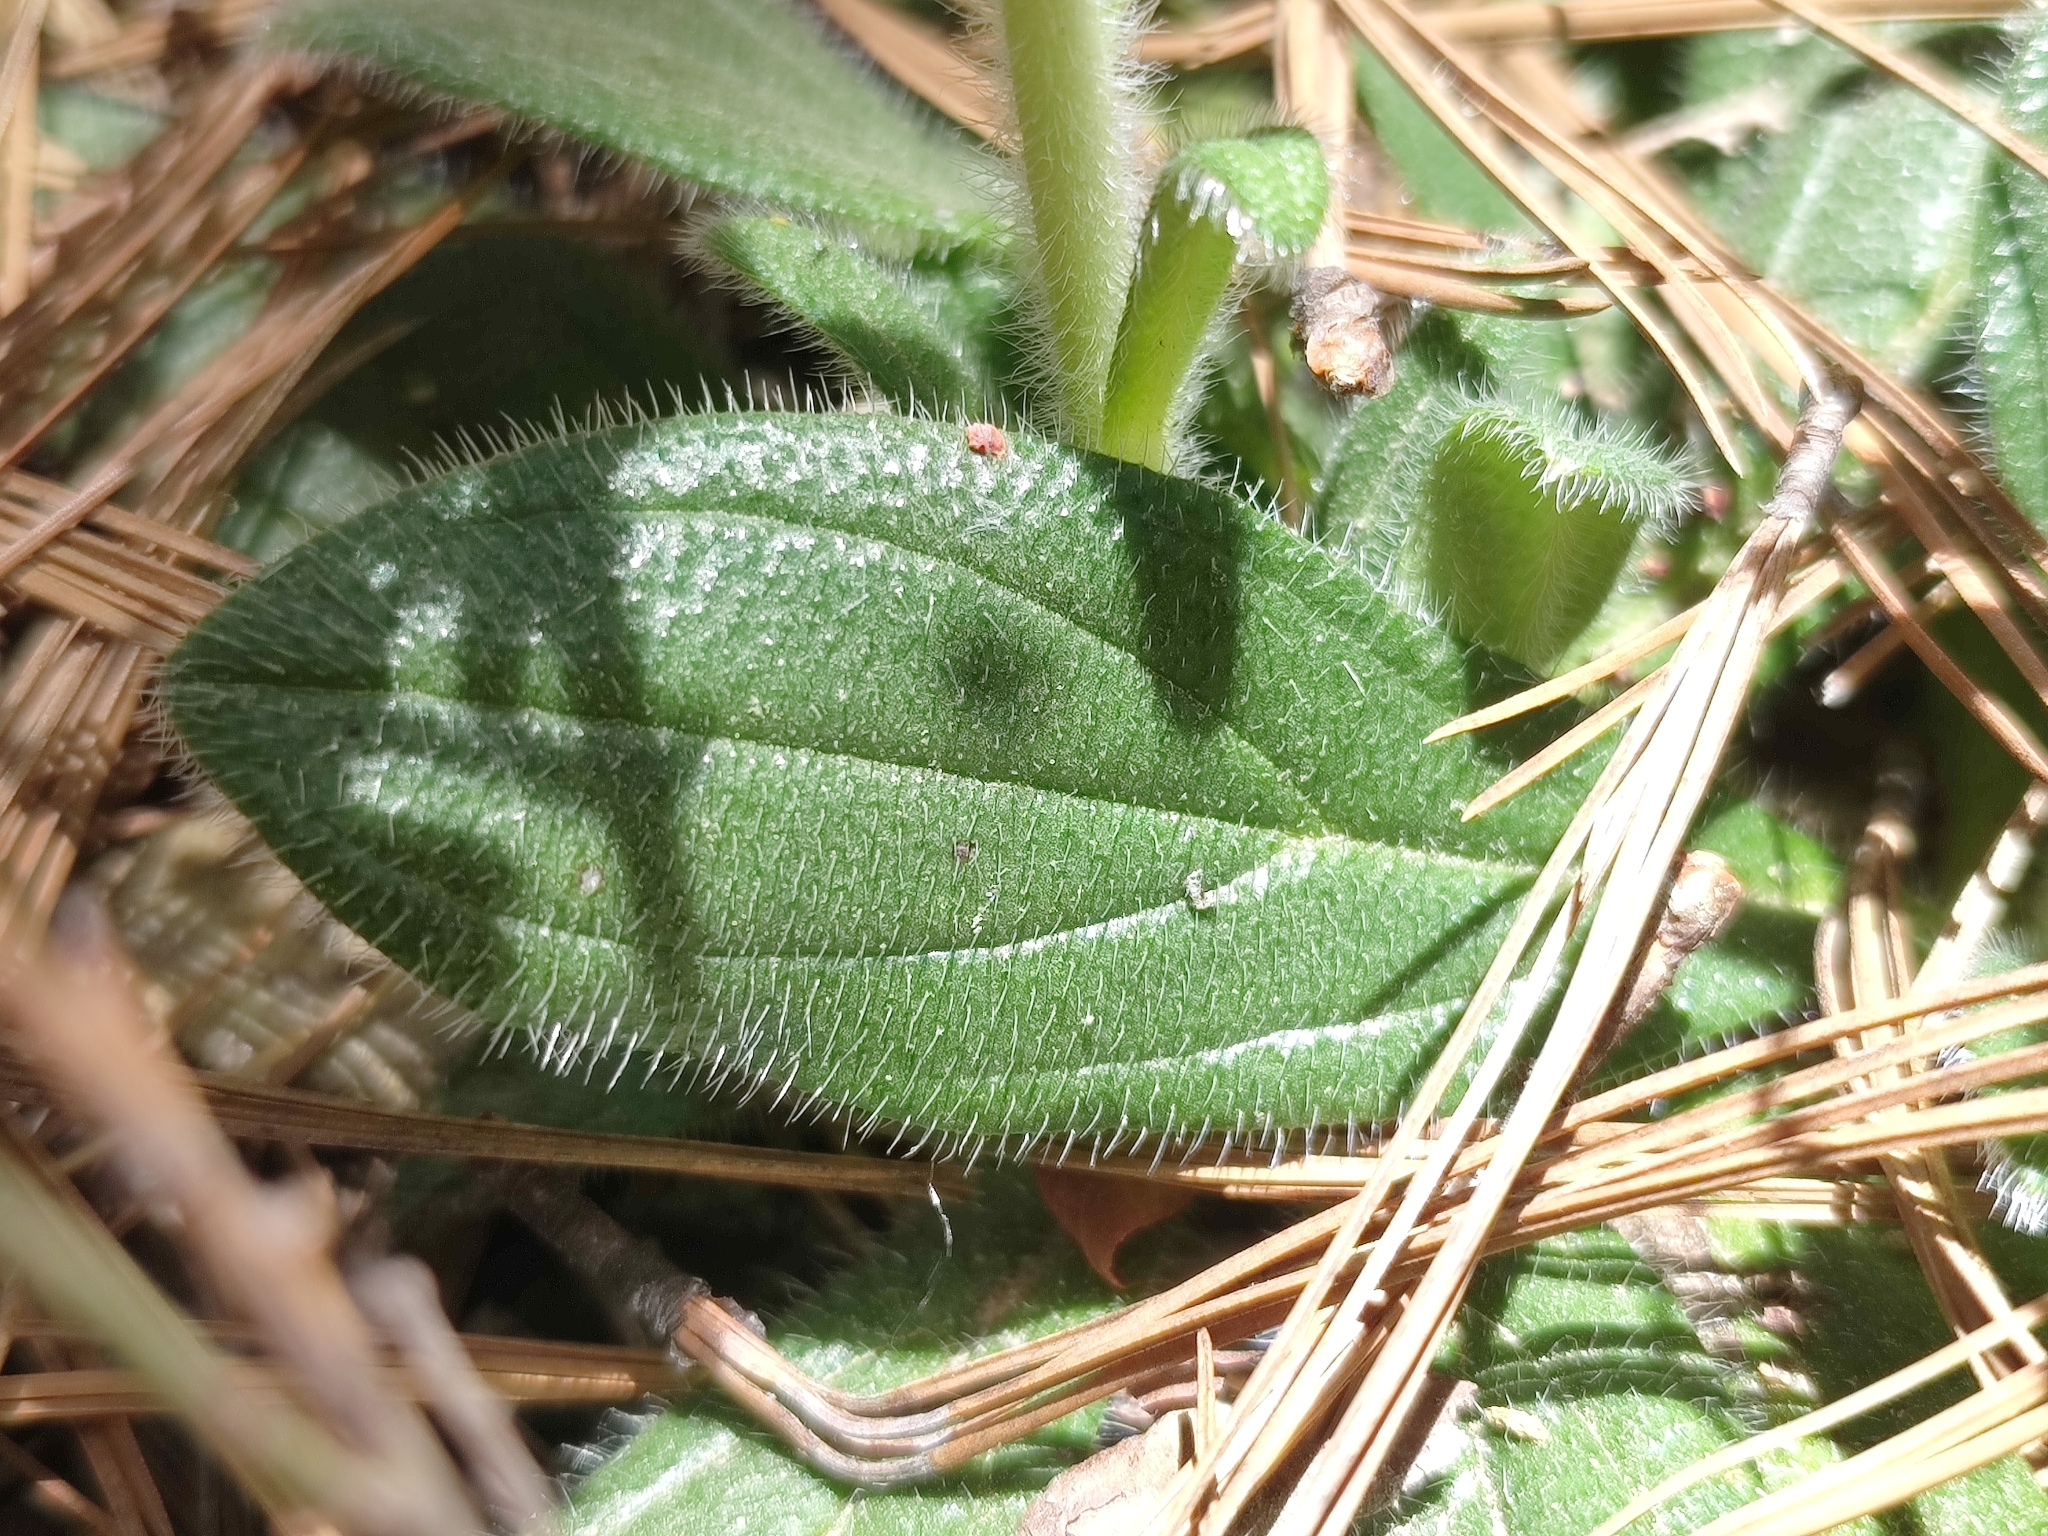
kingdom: Plantae
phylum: Tracheophyta
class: Magnoliopsida
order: Boraginales
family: Boraginaceae
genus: Lithospermum
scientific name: Lithospermum cobrense
